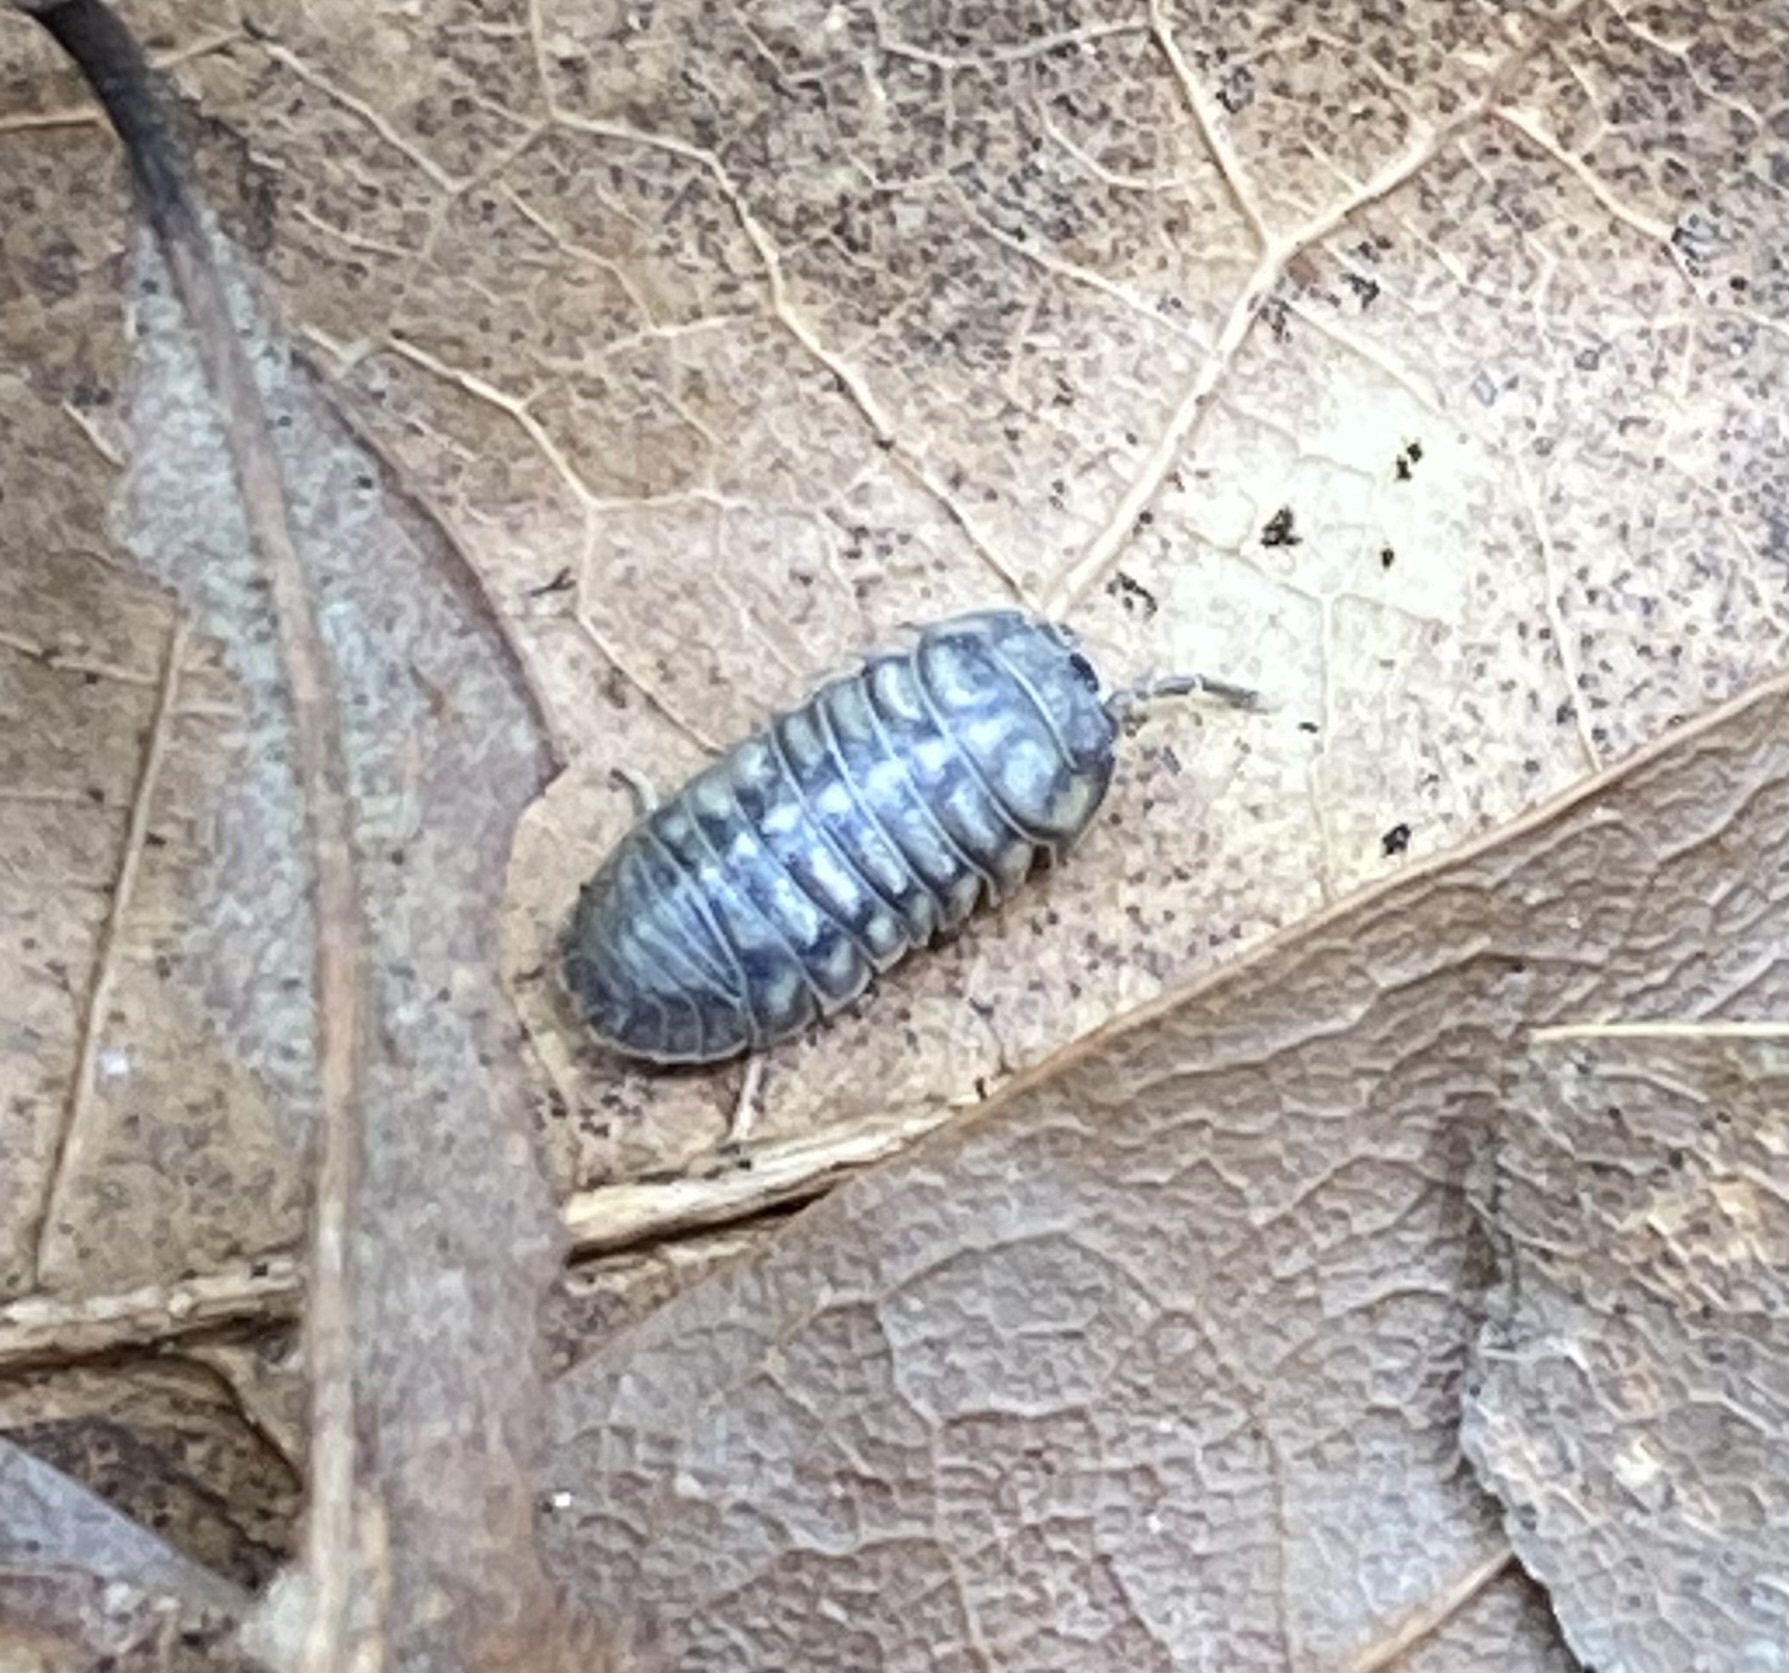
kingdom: Animalia
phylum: Arthropoda
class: Malacostraca
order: Isopoda
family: Armadillidiidae
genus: Armadillidium
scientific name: Armadillidium nasatum
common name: Isopod
